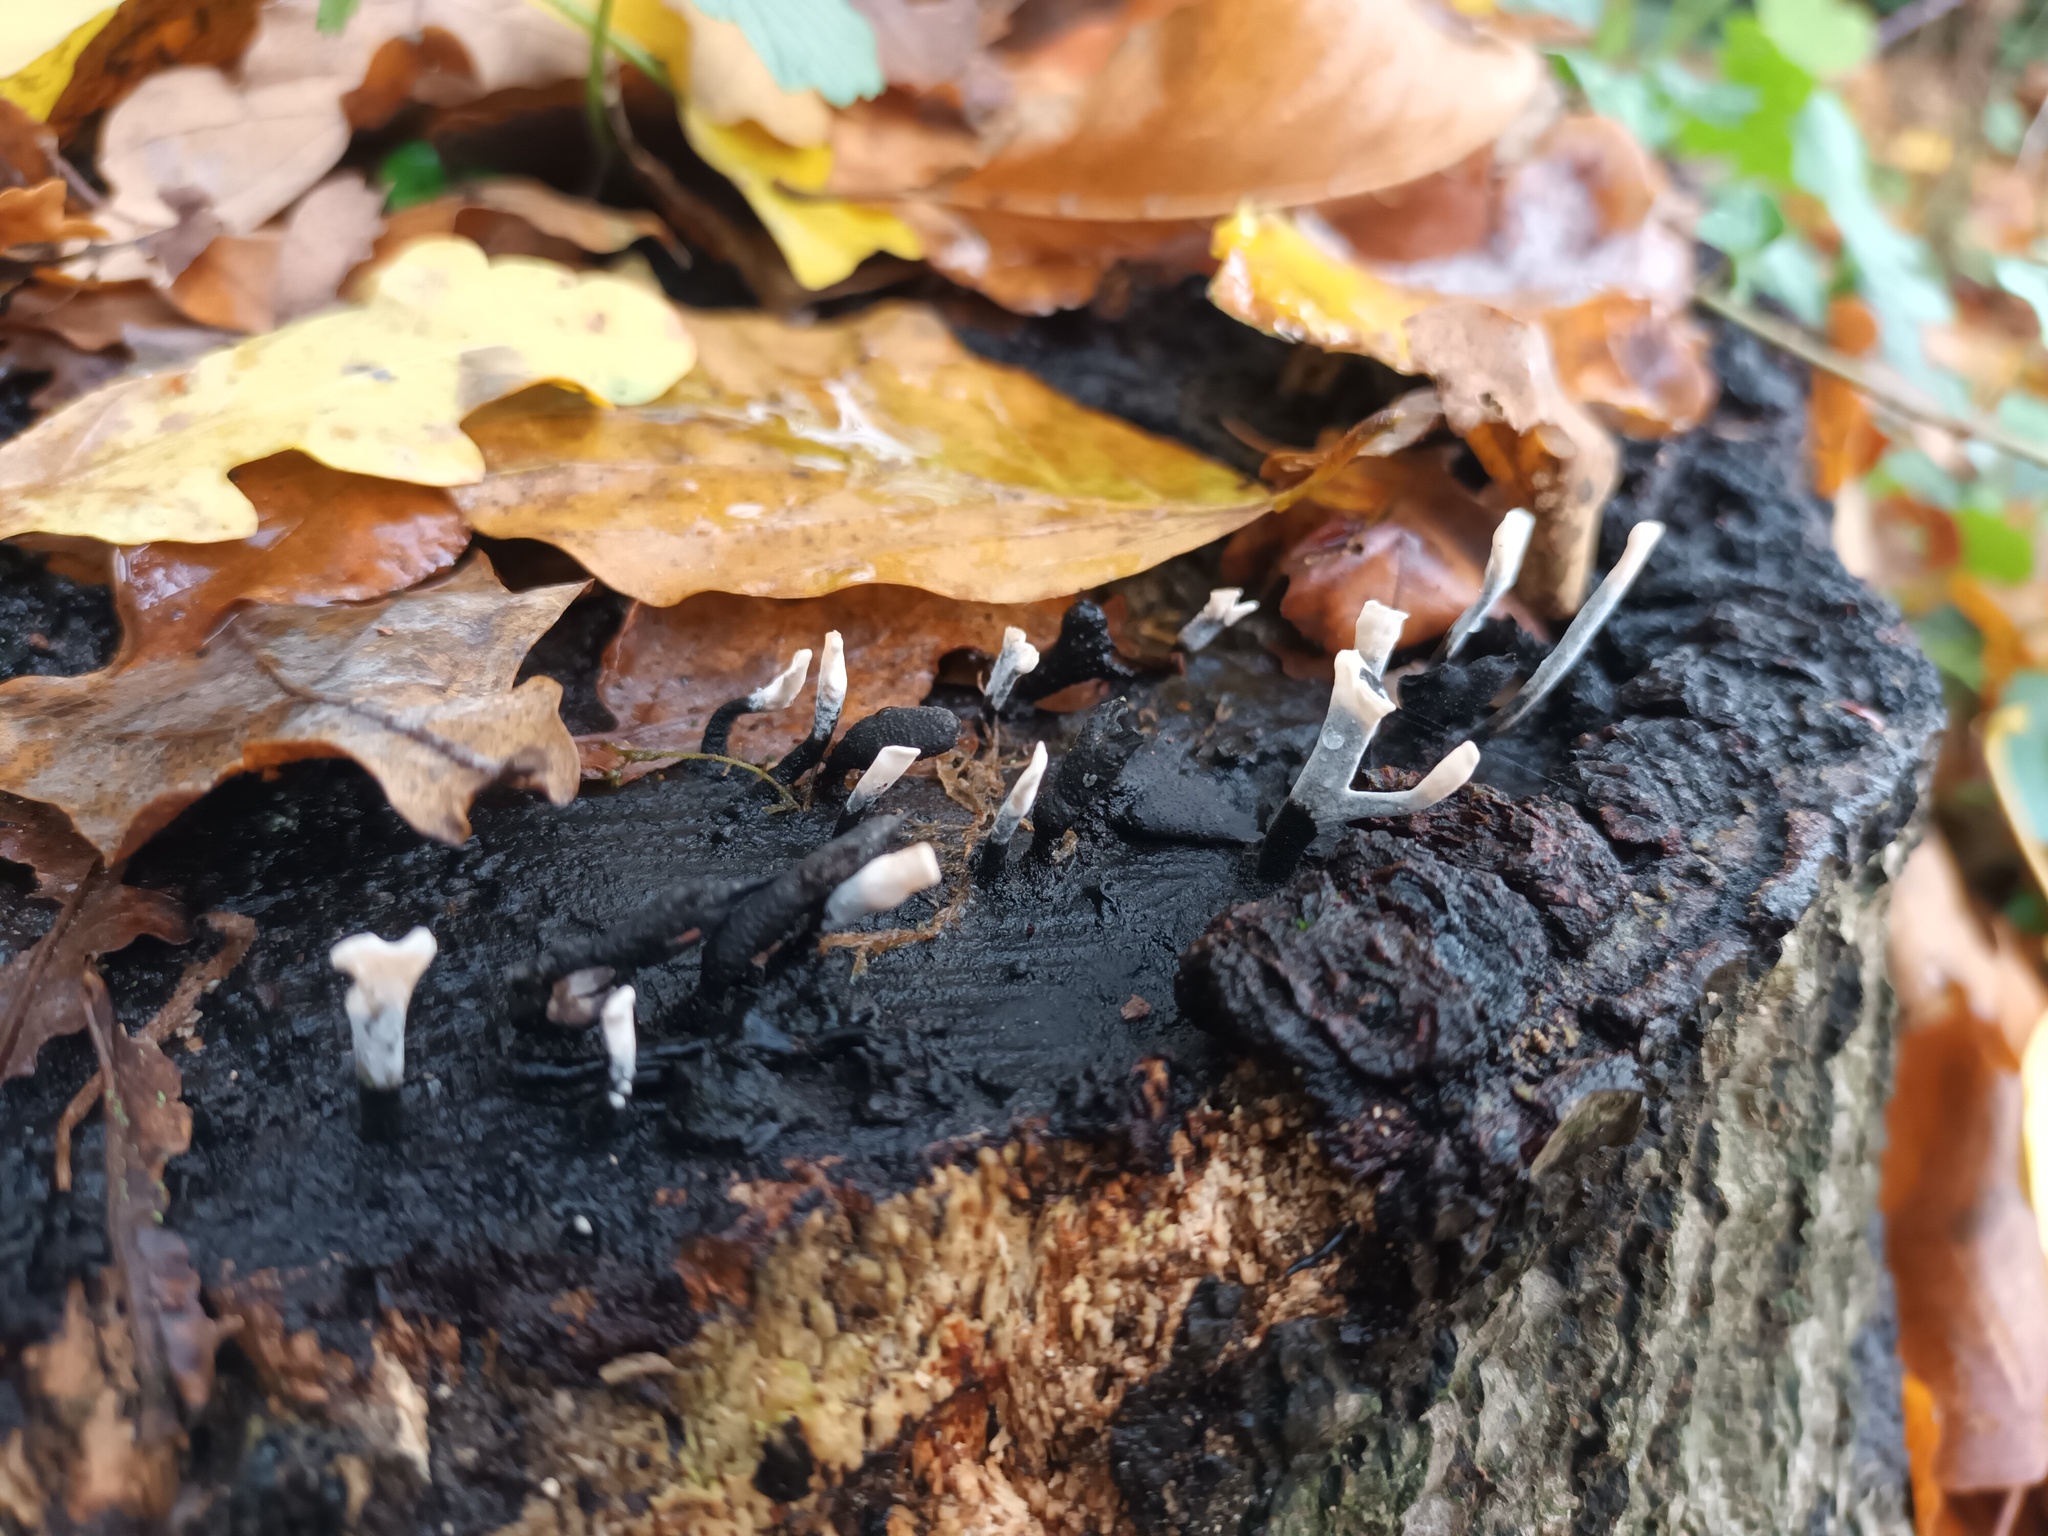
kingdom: Fungi
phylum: Ascomycota
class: Sordariomycetes
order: Xylariales
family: Xylariaceae
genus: Xylaria
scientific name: Xylaria hypoxylon
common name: Candle-snuff fungus
